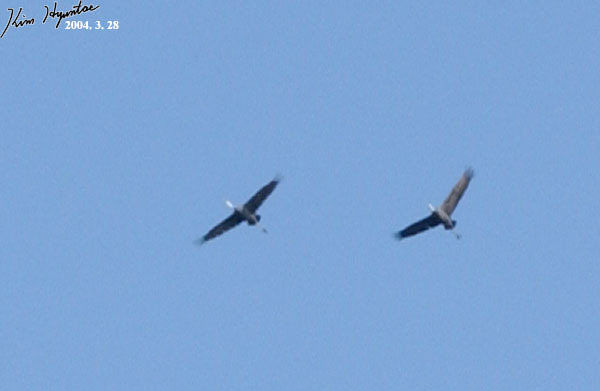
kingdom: Animalia
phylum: Chordata
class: Aves
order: Gruiformes
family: Gruidae
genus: Grus
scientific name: Grus monacha
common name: Hooded crane
